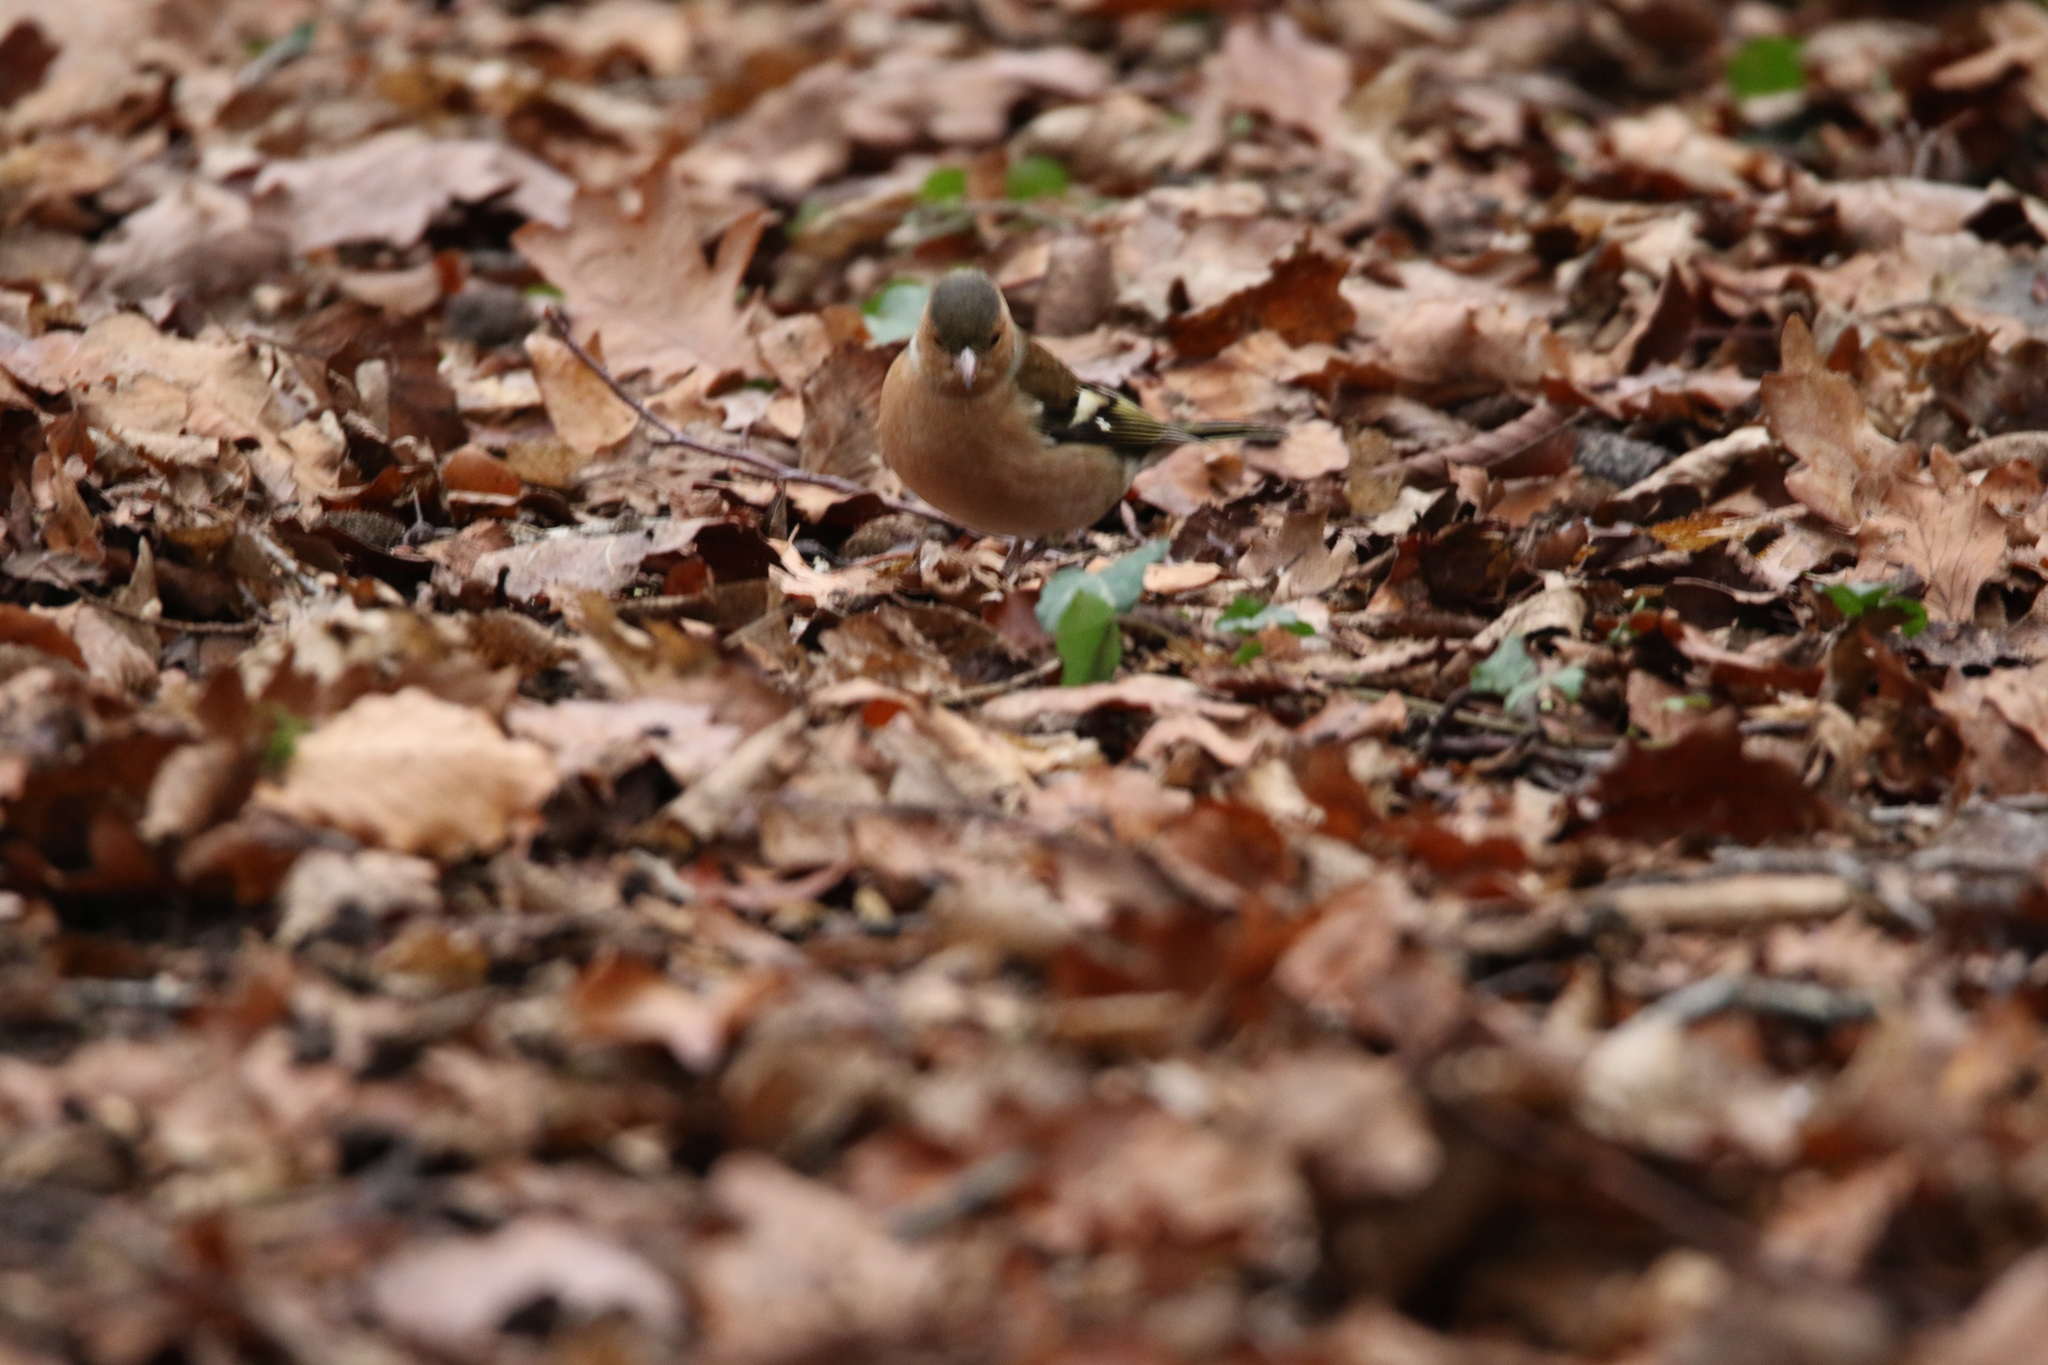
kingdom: Animalia
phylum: Chordata
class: Aves
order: Passeriformes
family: Fringillidae
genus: Fringilla
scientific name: Fringilla coelebs
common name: Common chaffinch
